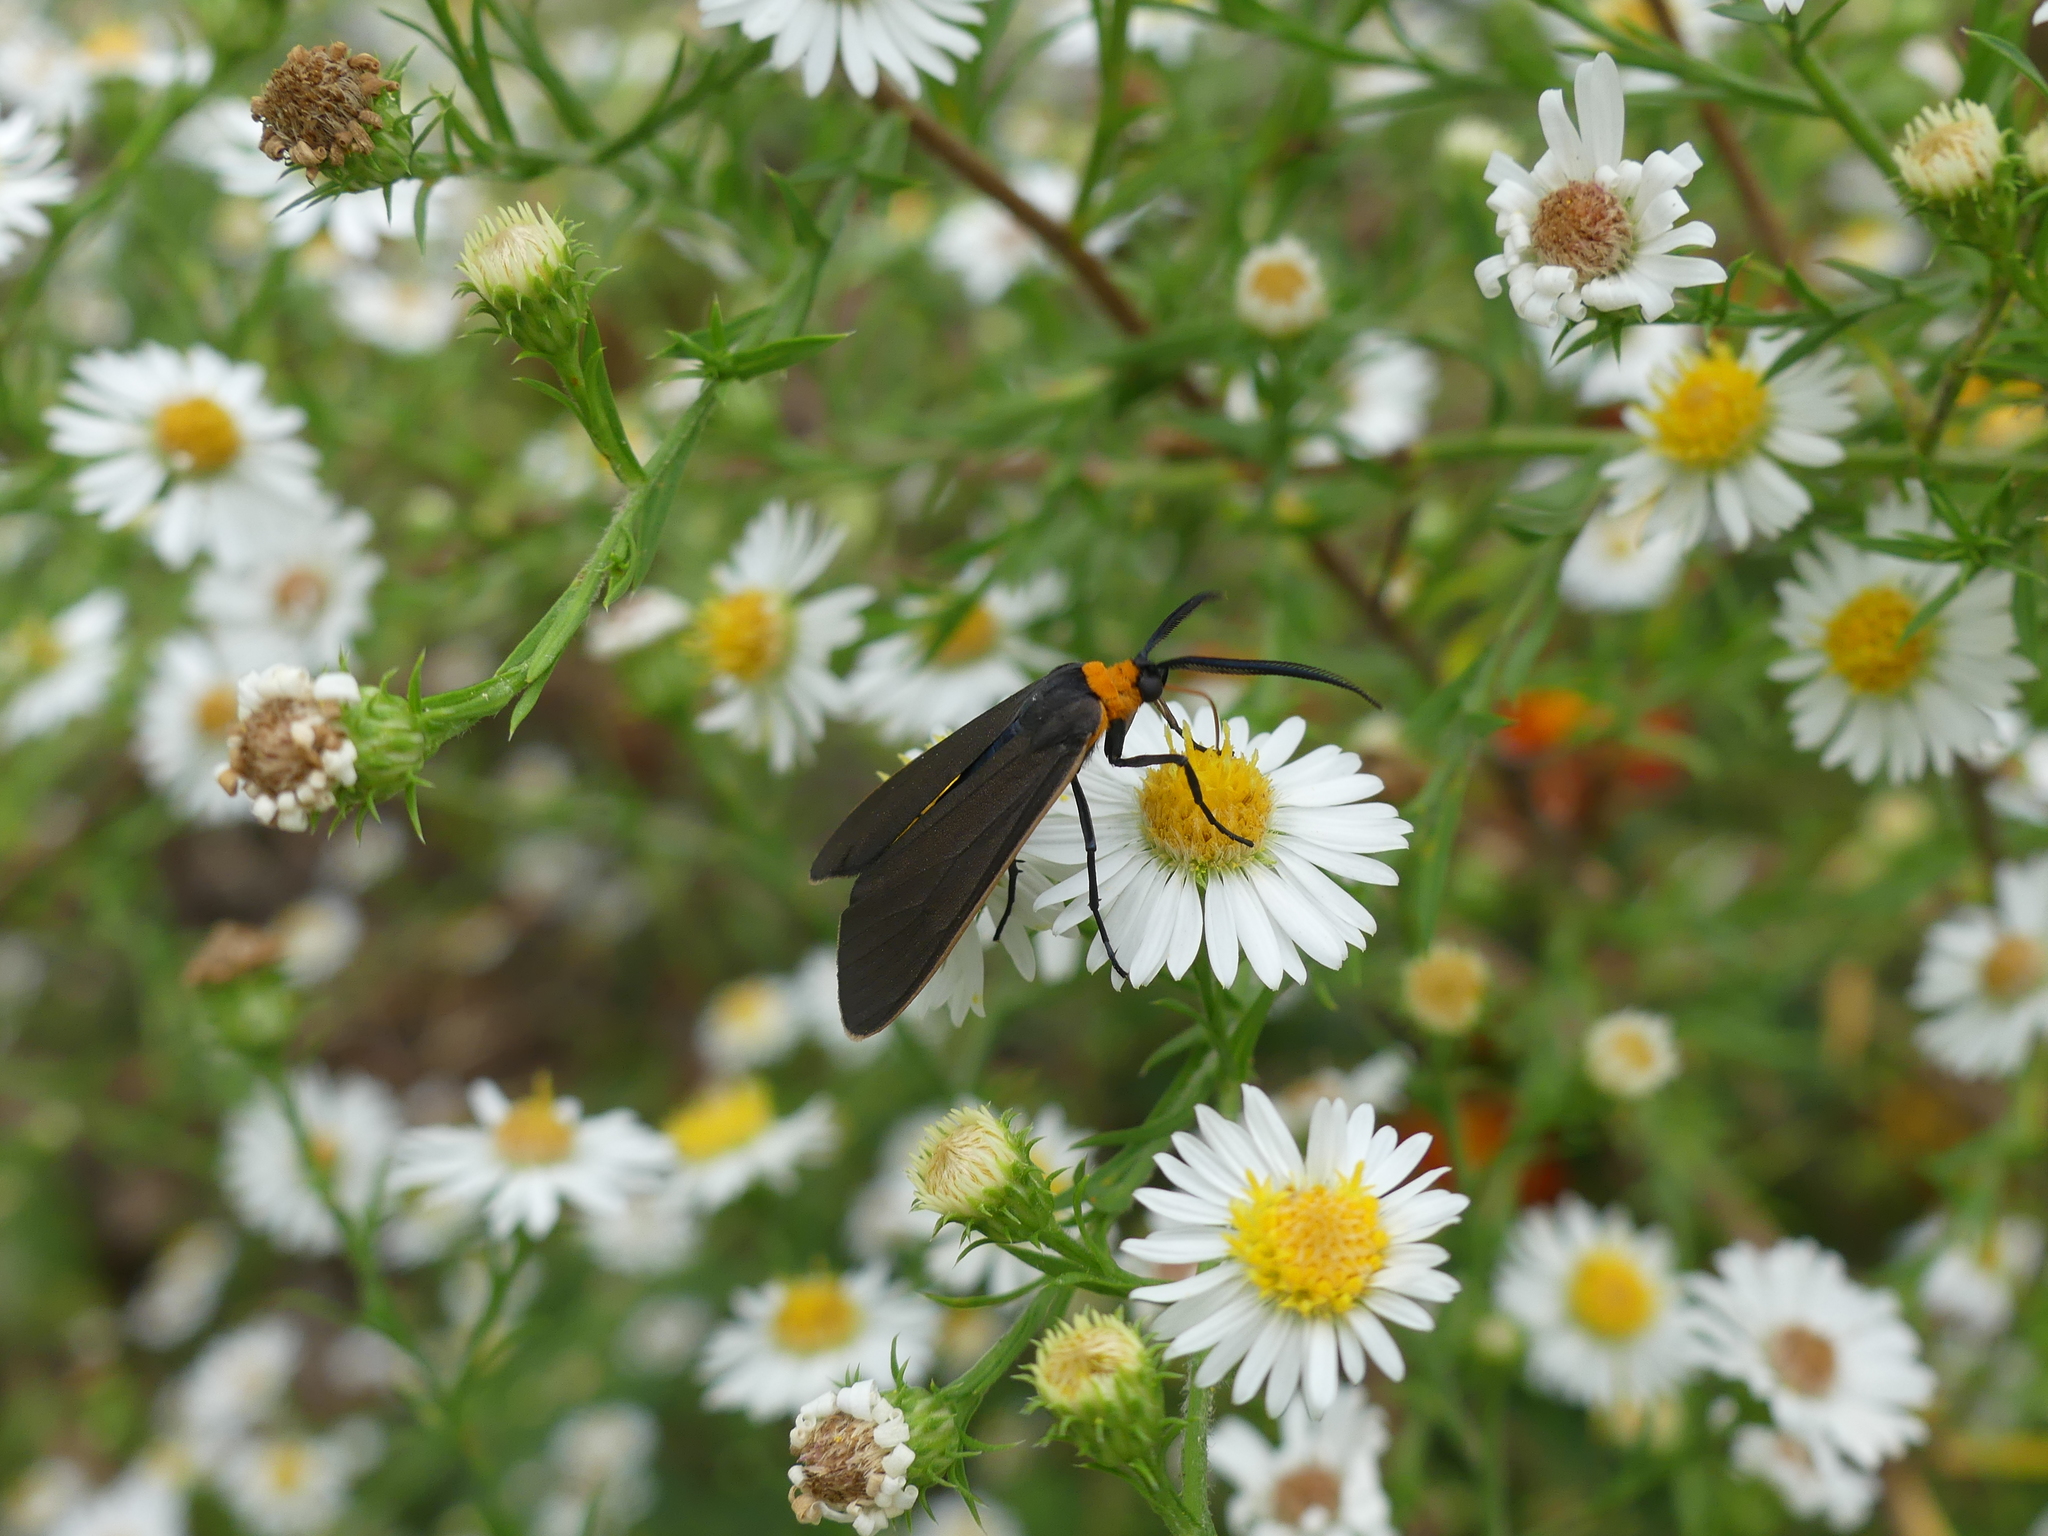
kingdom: Animalia
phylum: Arthropoda
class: Insecta
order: Lepidoptera
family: Erebidae
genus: Cisseps
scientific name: Cisseps fulvicollis
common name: Yellow-collared scape moth
